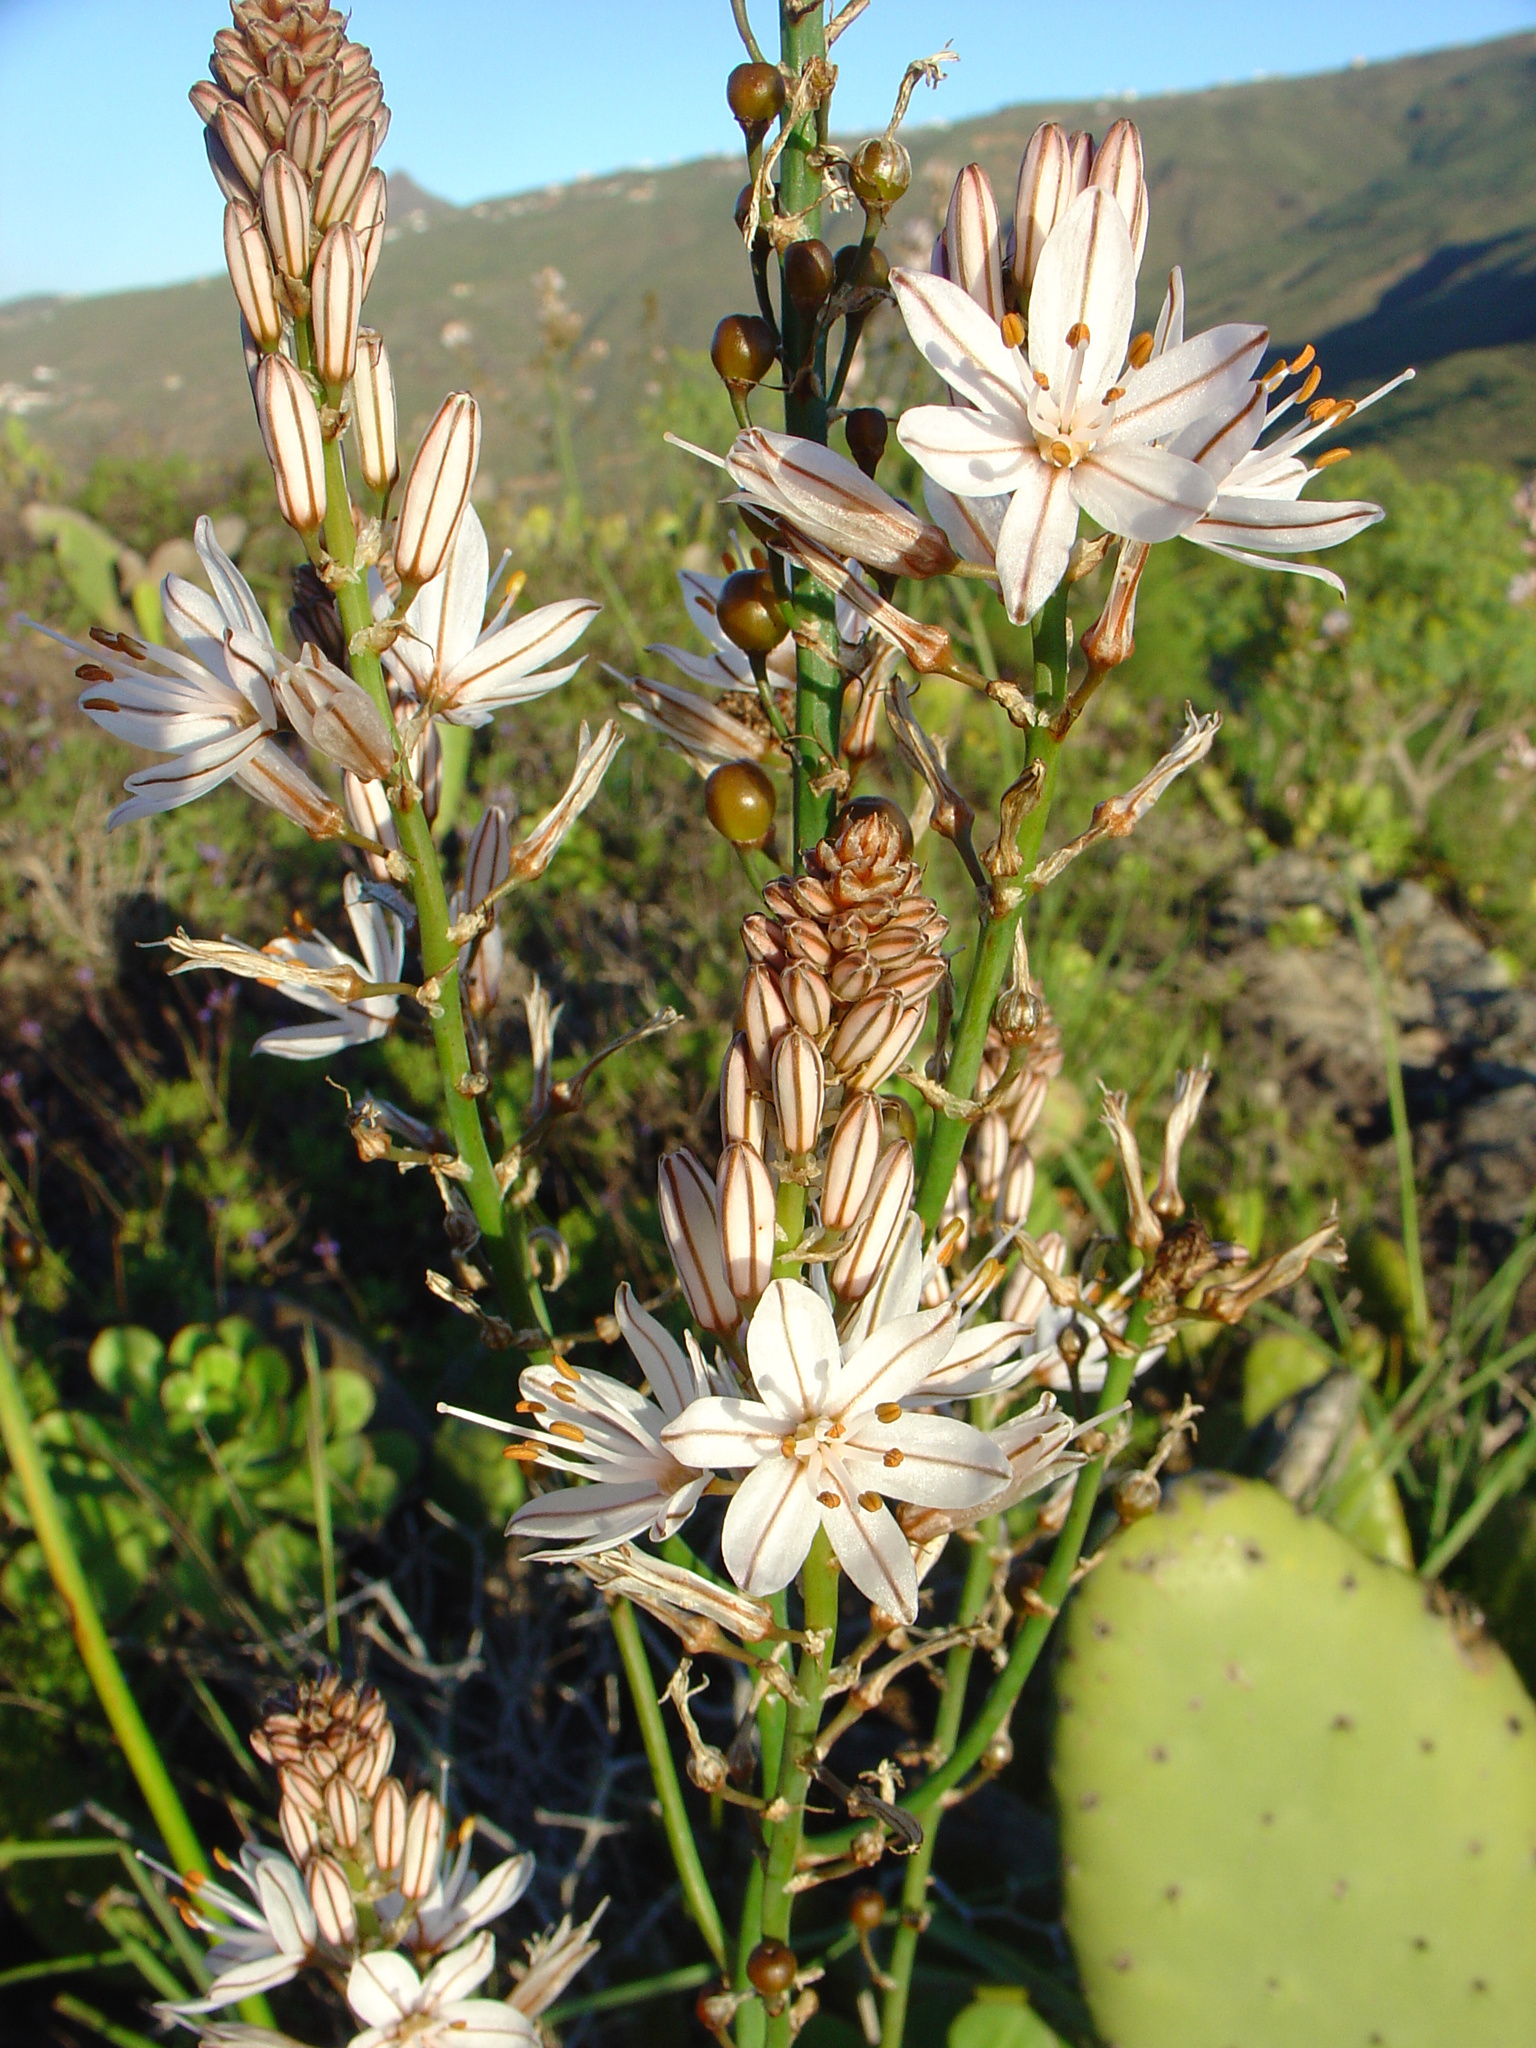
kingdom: Plantae
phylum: Tracheophyta
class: Liliopsida
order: Asparagales
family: Asphodelaceae
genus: Asphodelus
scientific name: Asphodelus ramosus
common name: Silverrod
